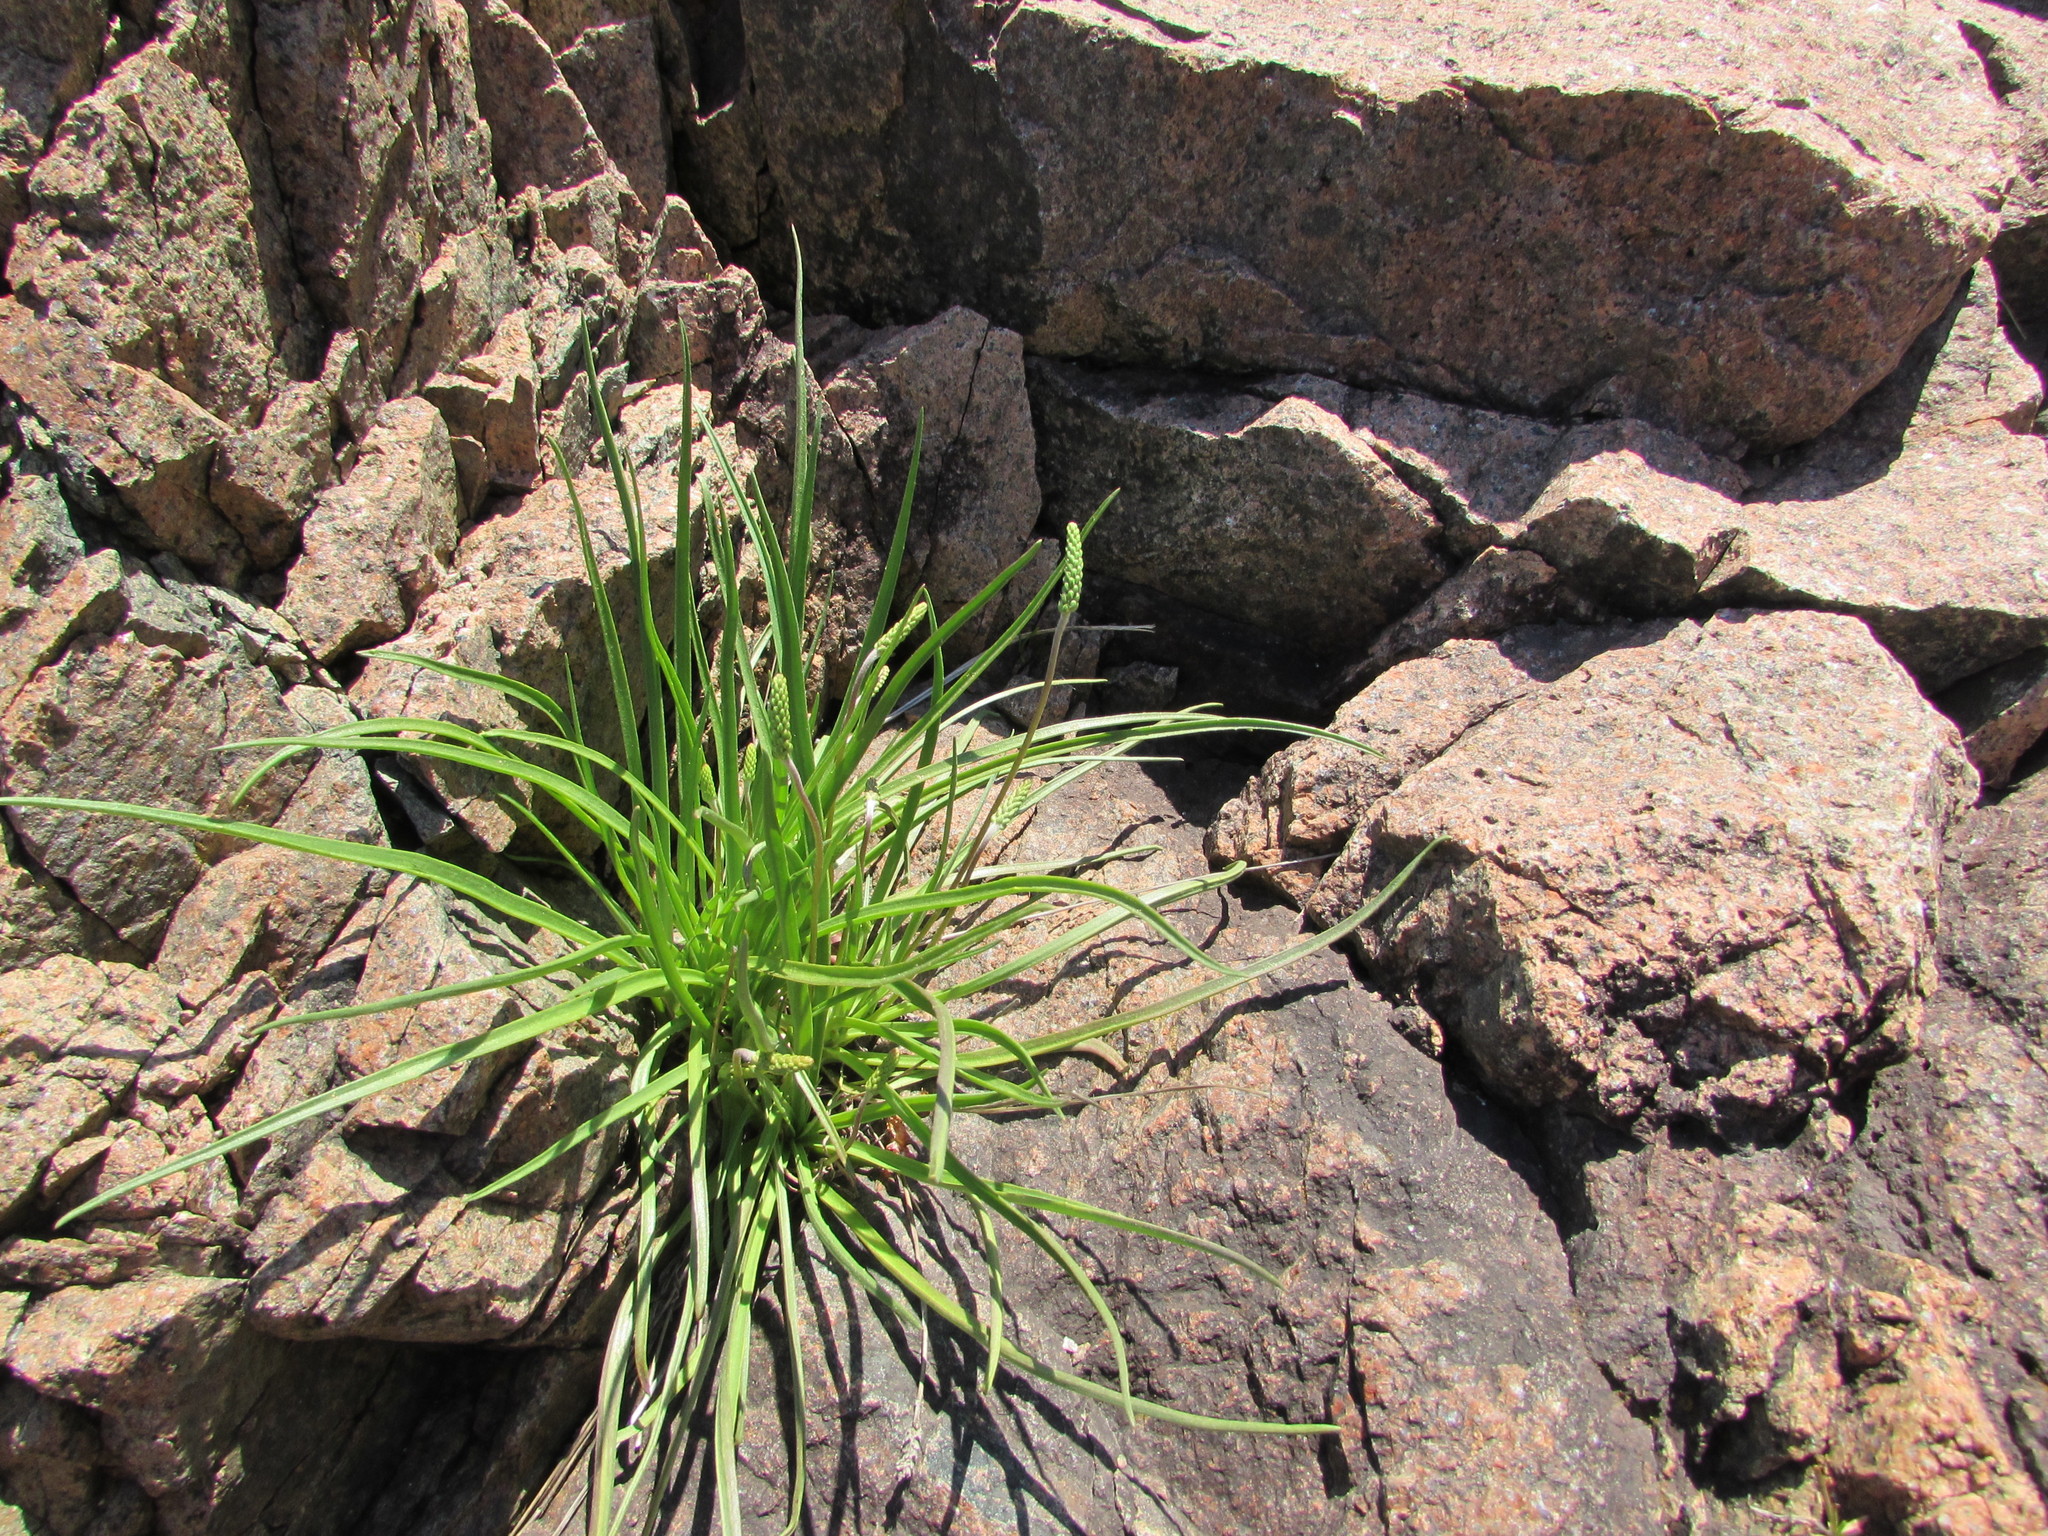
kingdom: Plantae
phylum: Tracheophyta
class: Magnoliopsida
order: Lamiales
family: Plantaginaceae
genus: Plantago
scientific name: Plantago maritima
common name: Sea plantain
